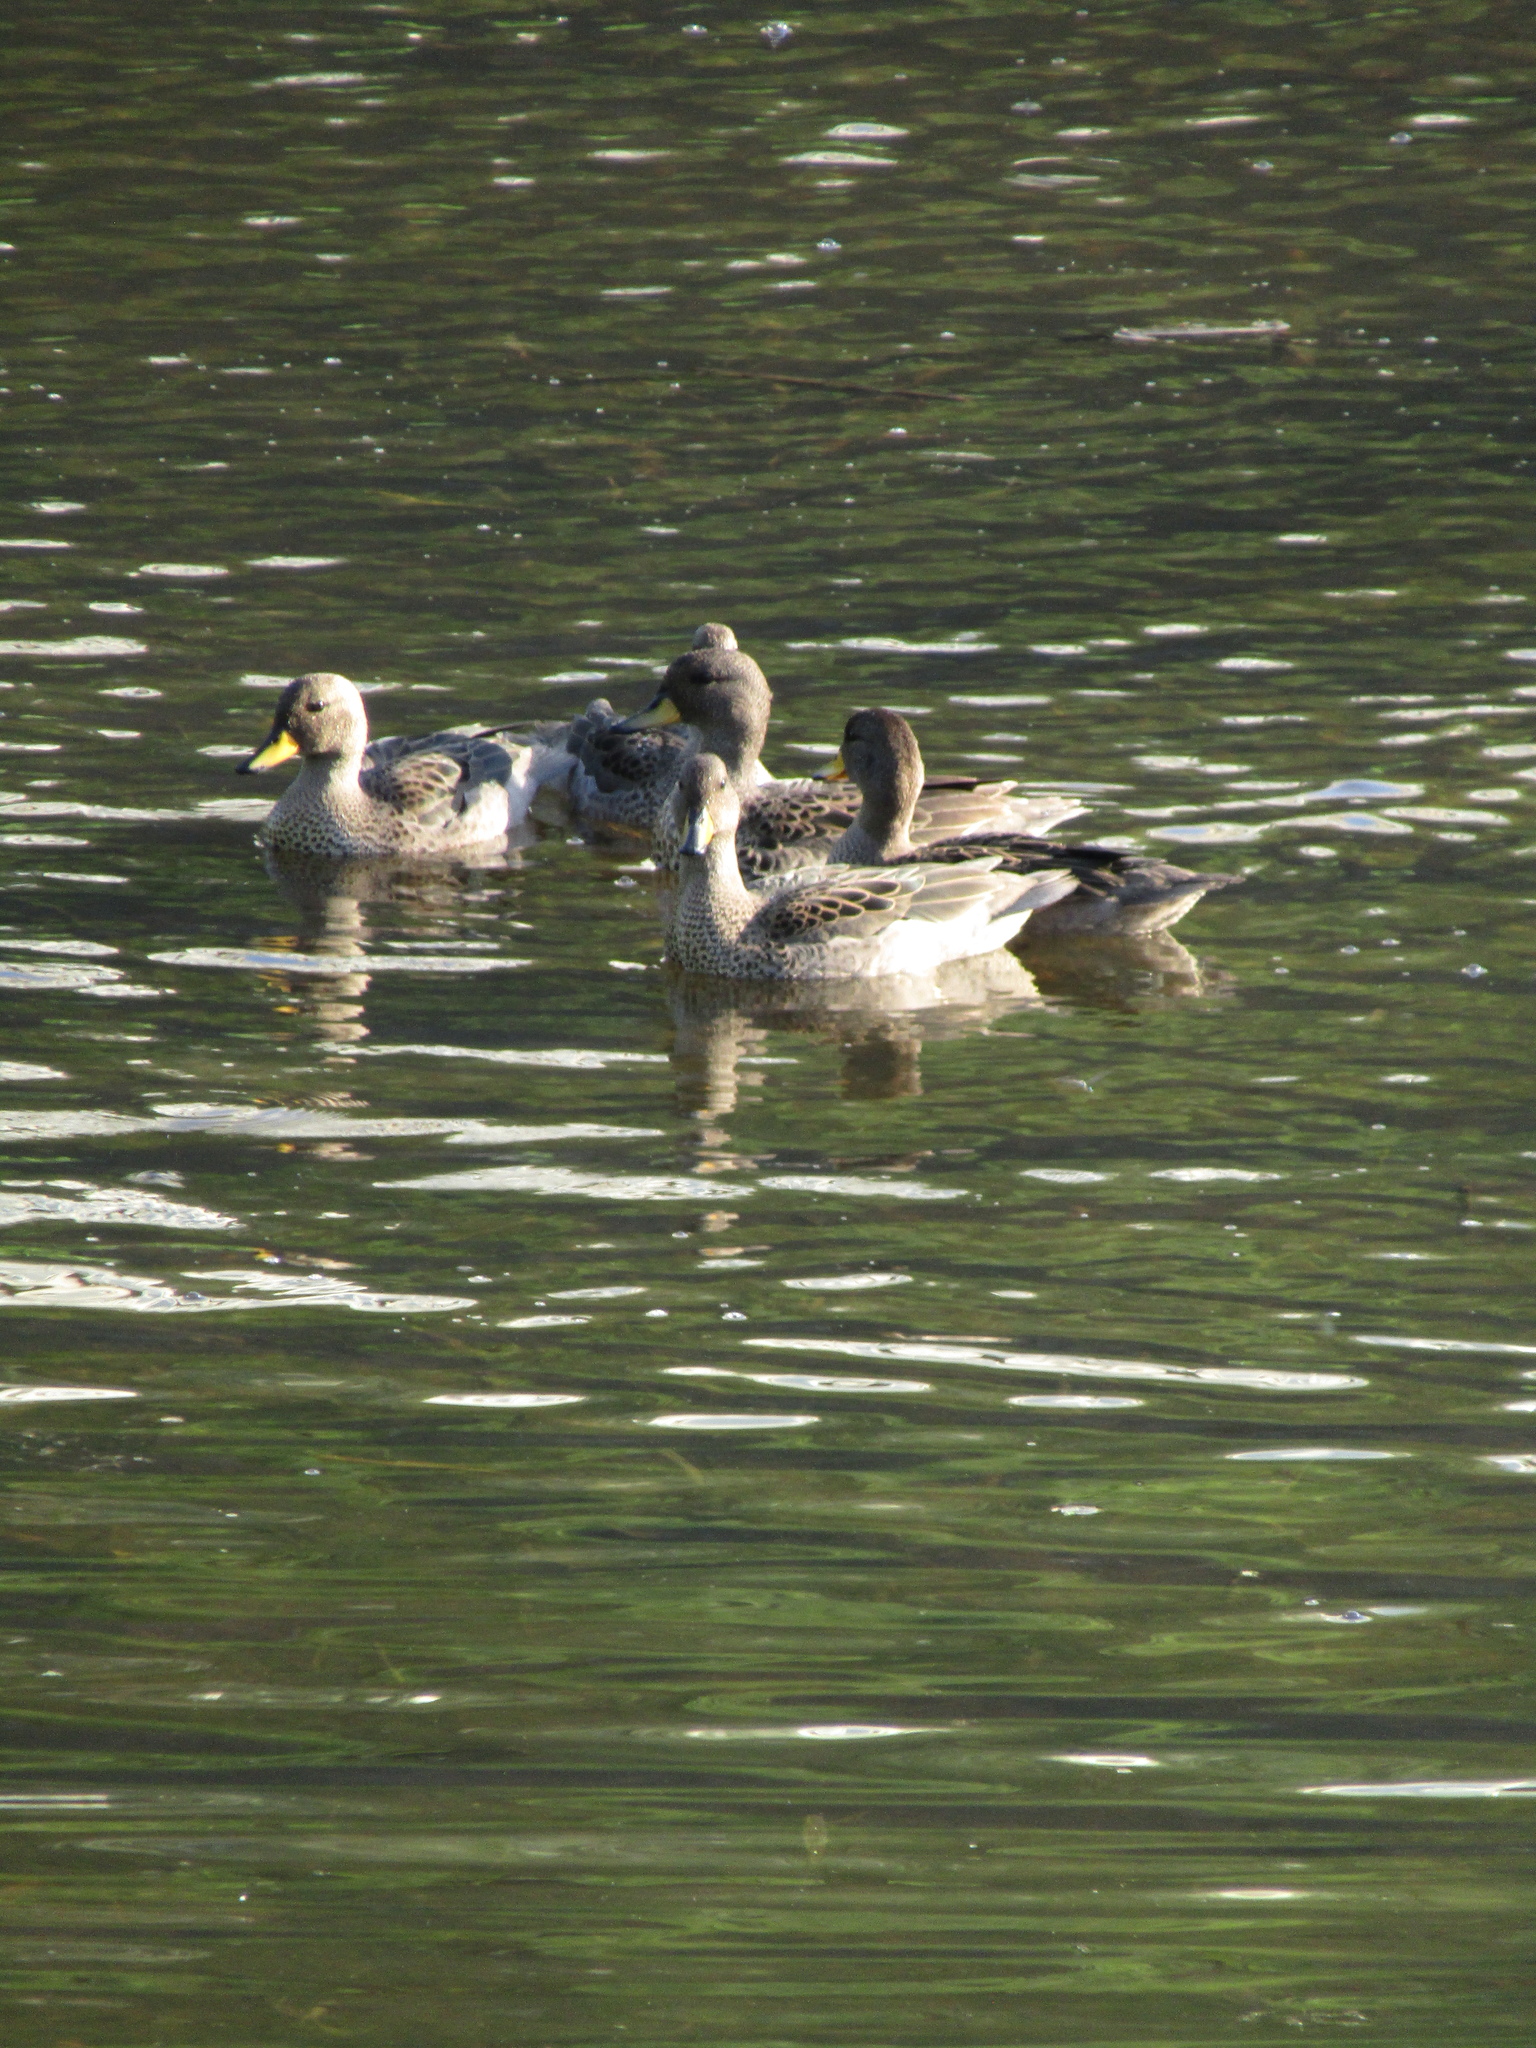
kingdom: Animalia
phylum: Chordata
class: Aves
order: Anseriformes
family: Anatidae
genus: Anas
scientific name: Anas flavirostris
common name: Yellow-billed teal
